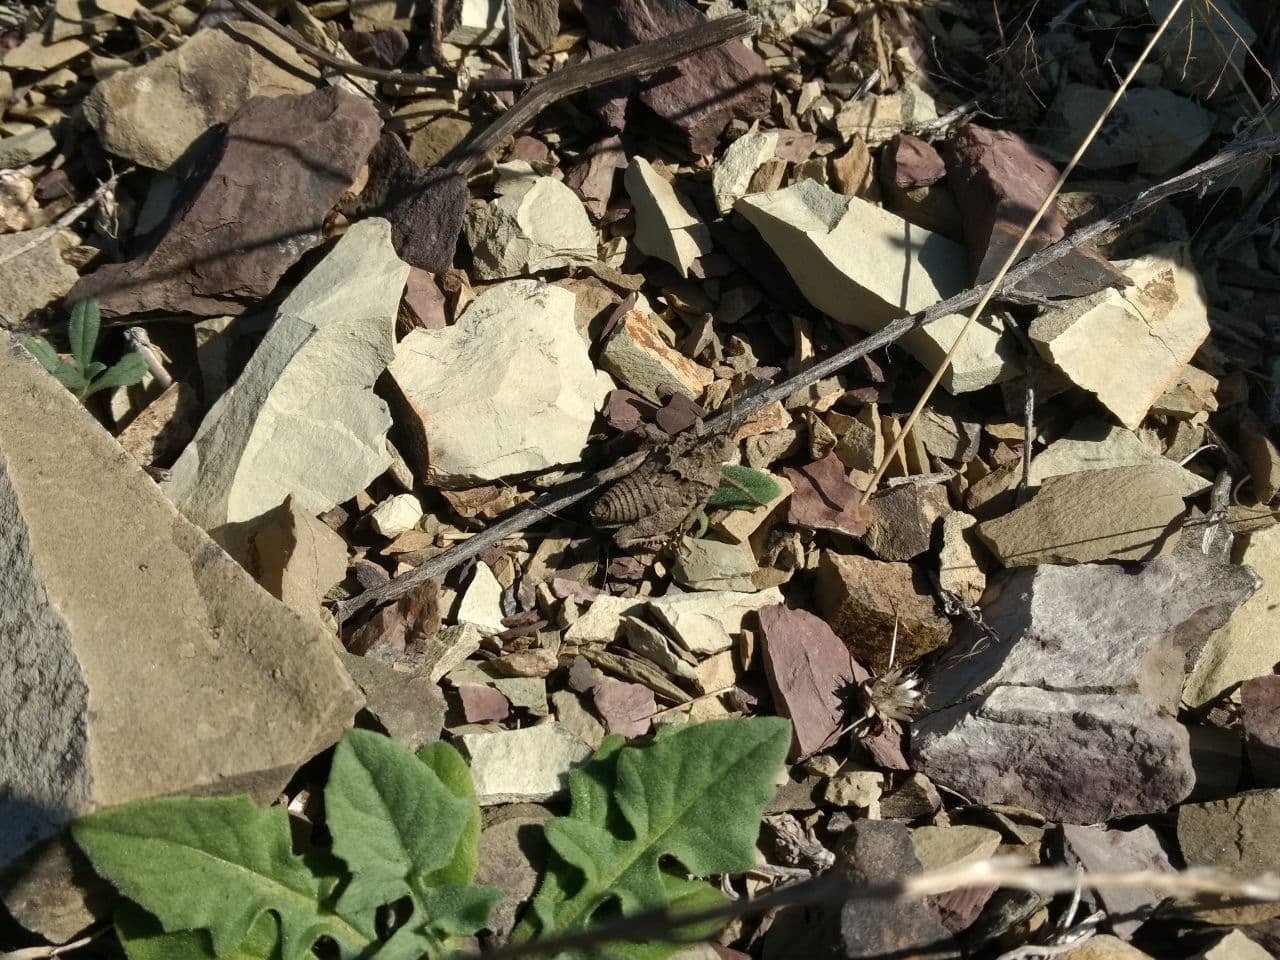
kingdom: Animalia
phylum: Arthropoda
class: Insecta
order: Orthoptera
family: Ommexechidae
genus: Spathalium
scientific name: Spathalium audouinii
